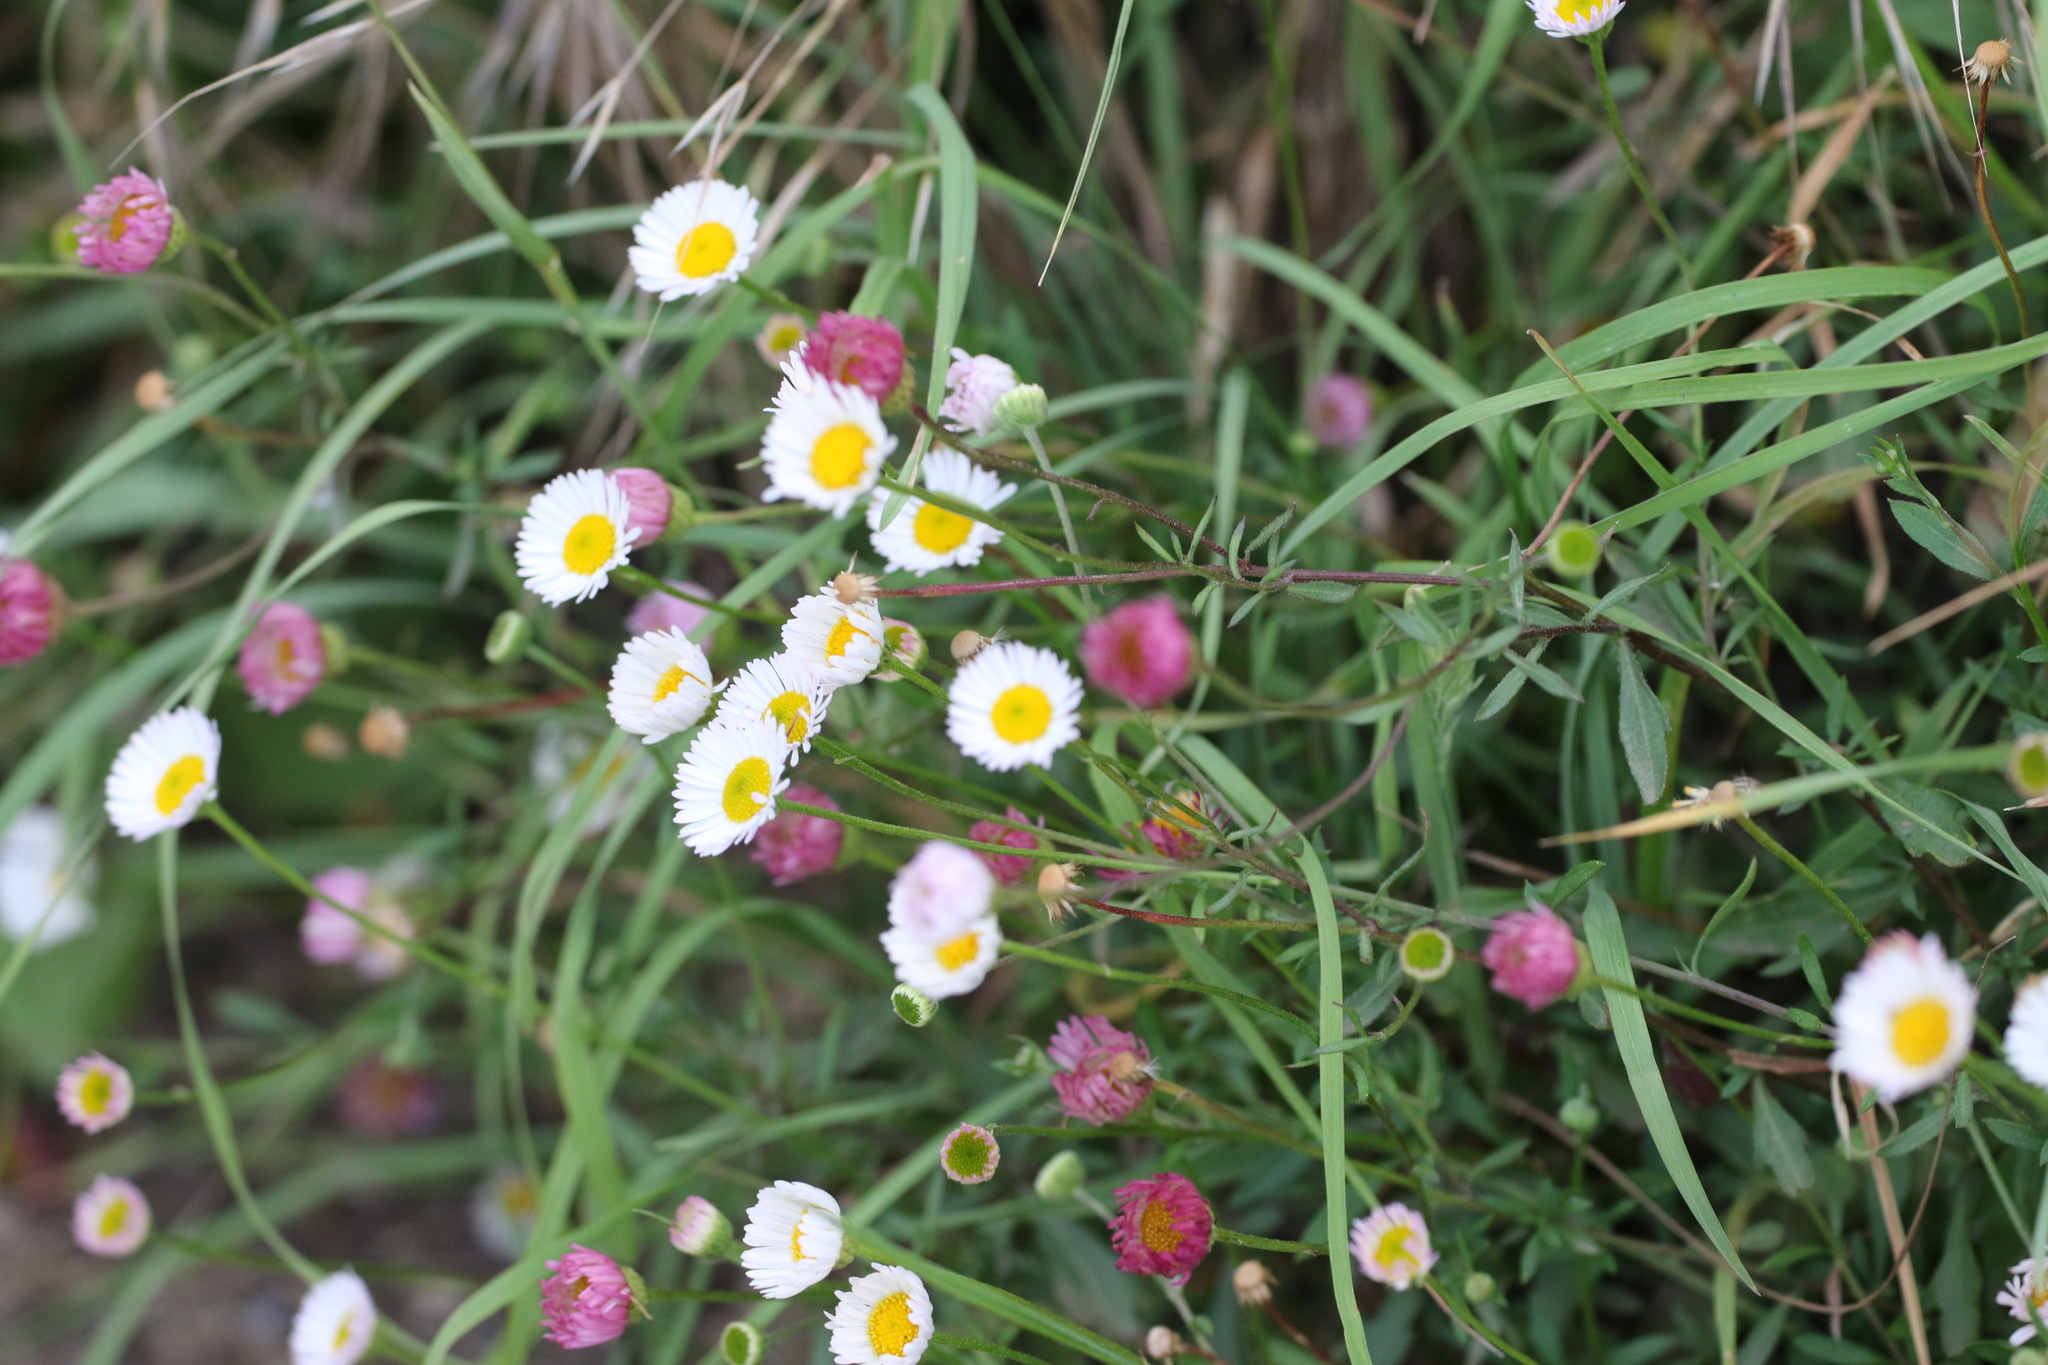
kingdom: Plantae
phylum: Tracheophyta
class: Magnoliopsida
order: Asterales
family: Asteraceae
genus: Erigeron
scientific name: Erigeron karvinskianus
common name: Mexican fleabane
